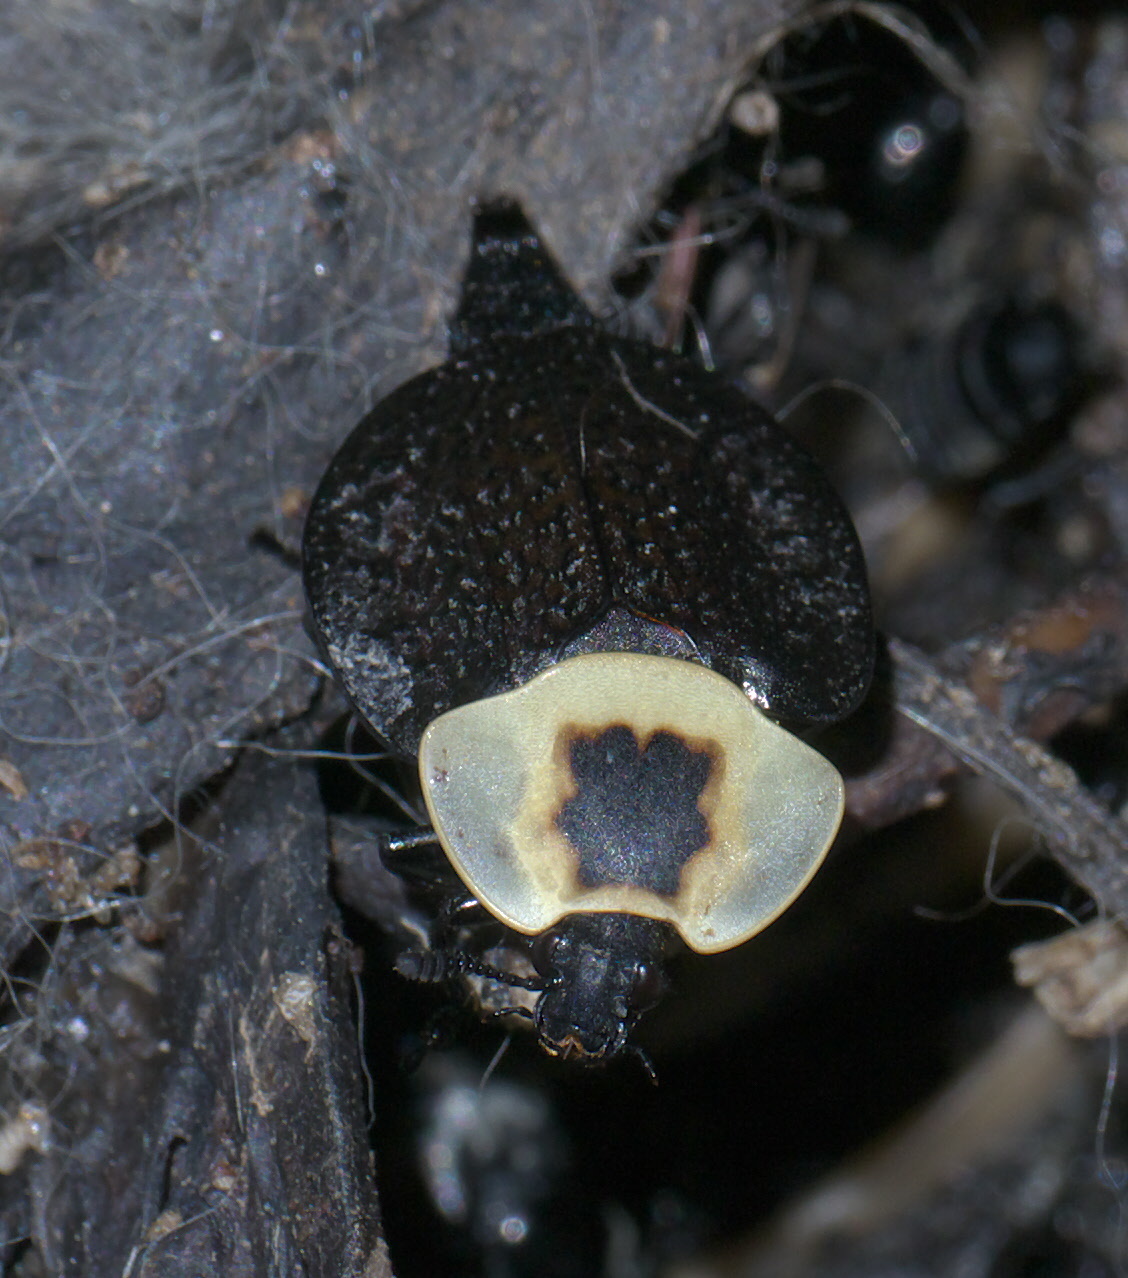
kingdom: Animalia
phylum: Arthropoda
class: Insecta
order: Coleoptera
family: Staphylinidae
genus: Necrophila
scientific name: Necrophila americana
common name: American carrion beetle
